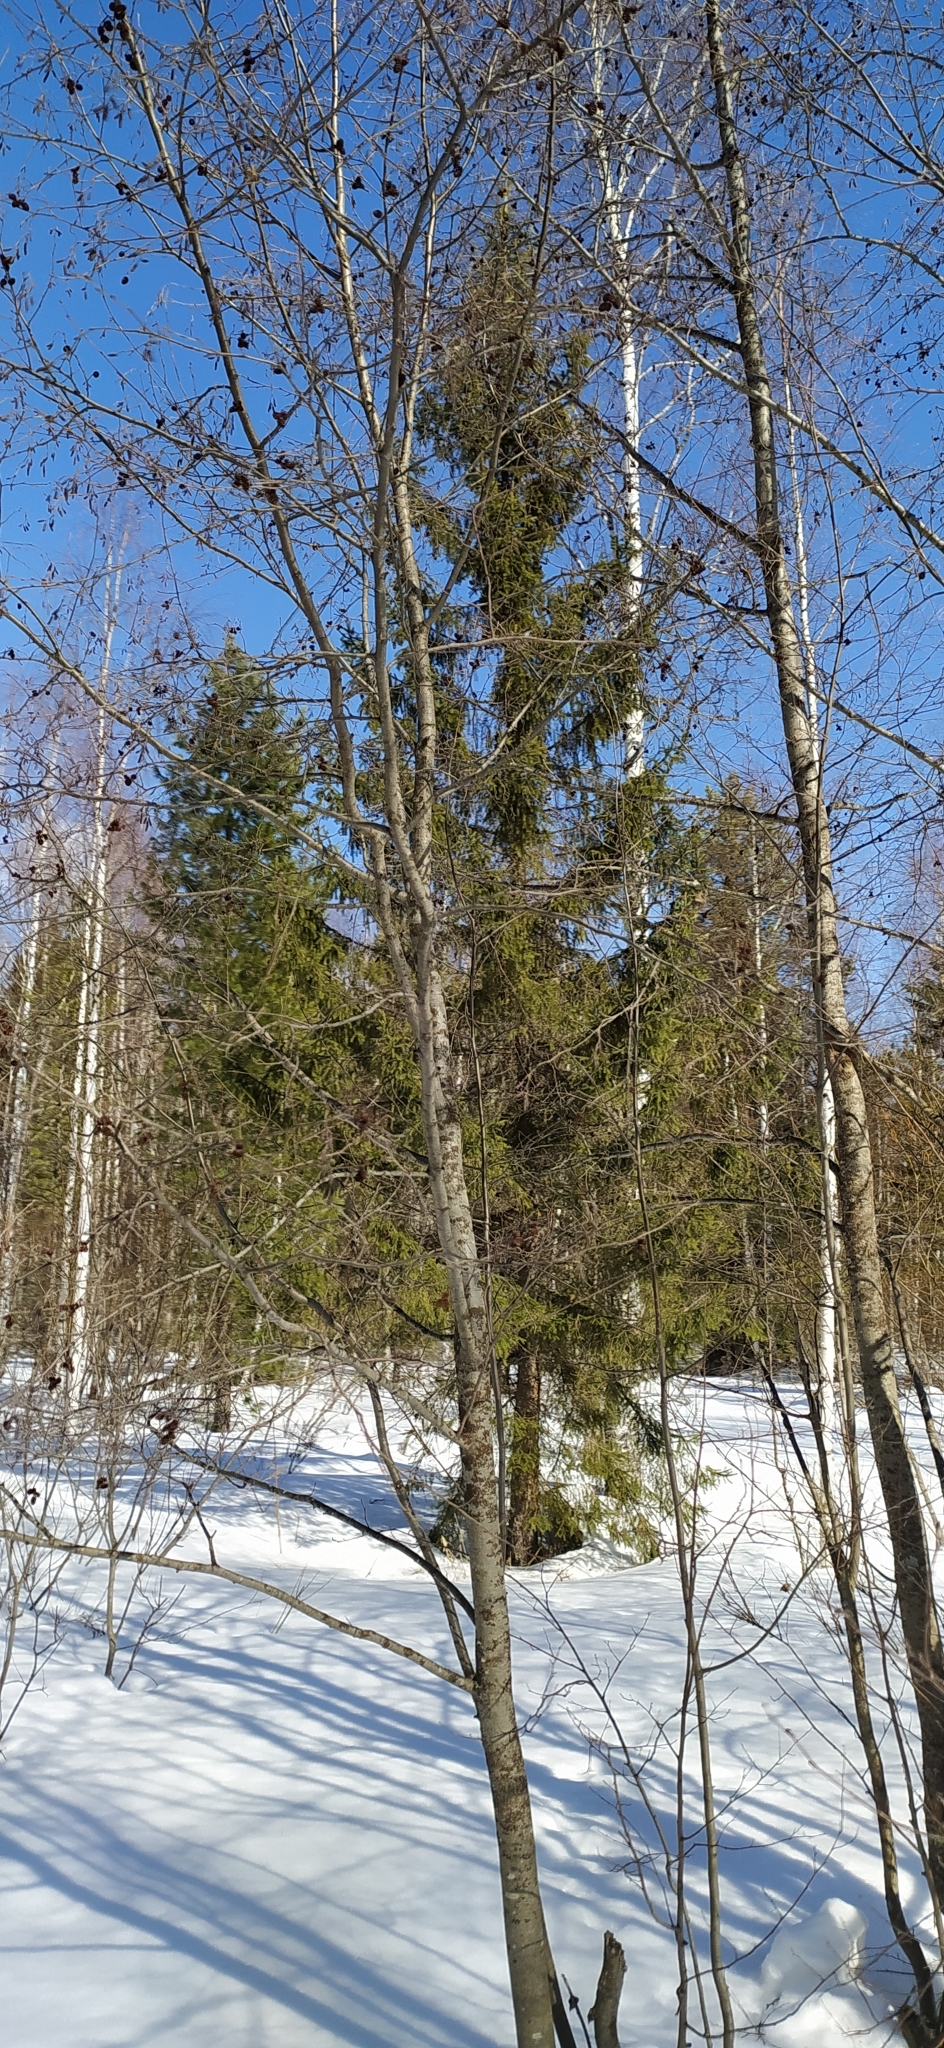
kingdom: Plantae
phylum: Tracheophyta
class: Magnoliopsida
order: Fagales
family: Betulaceae
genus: Alnus
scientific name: Alnus incana
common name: Grey alder
